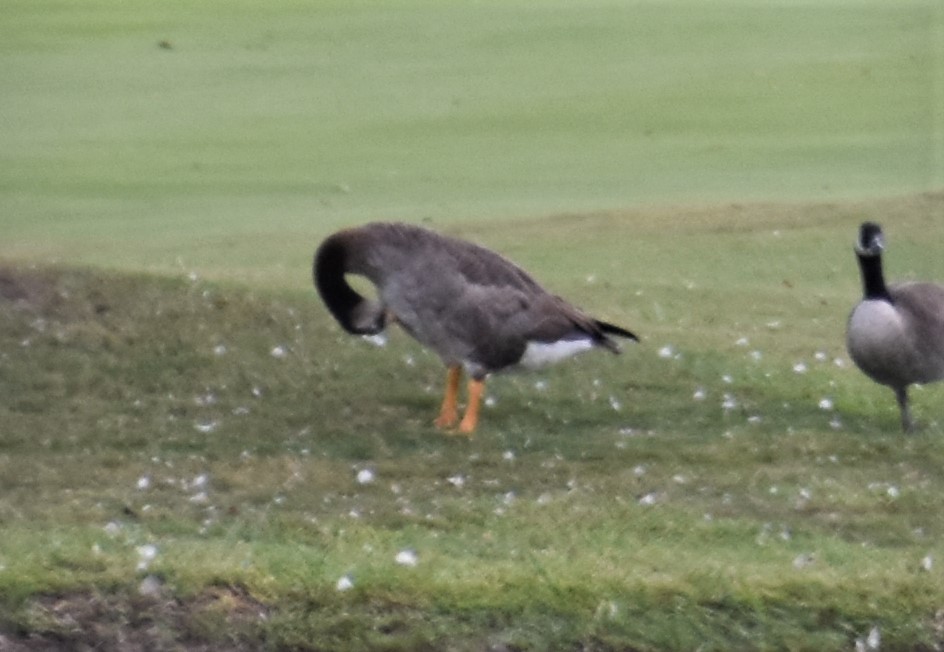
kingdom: Animalia
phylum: Chordata
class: Aves
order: Anseriformes
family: Anatidae
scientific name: Anatidae
